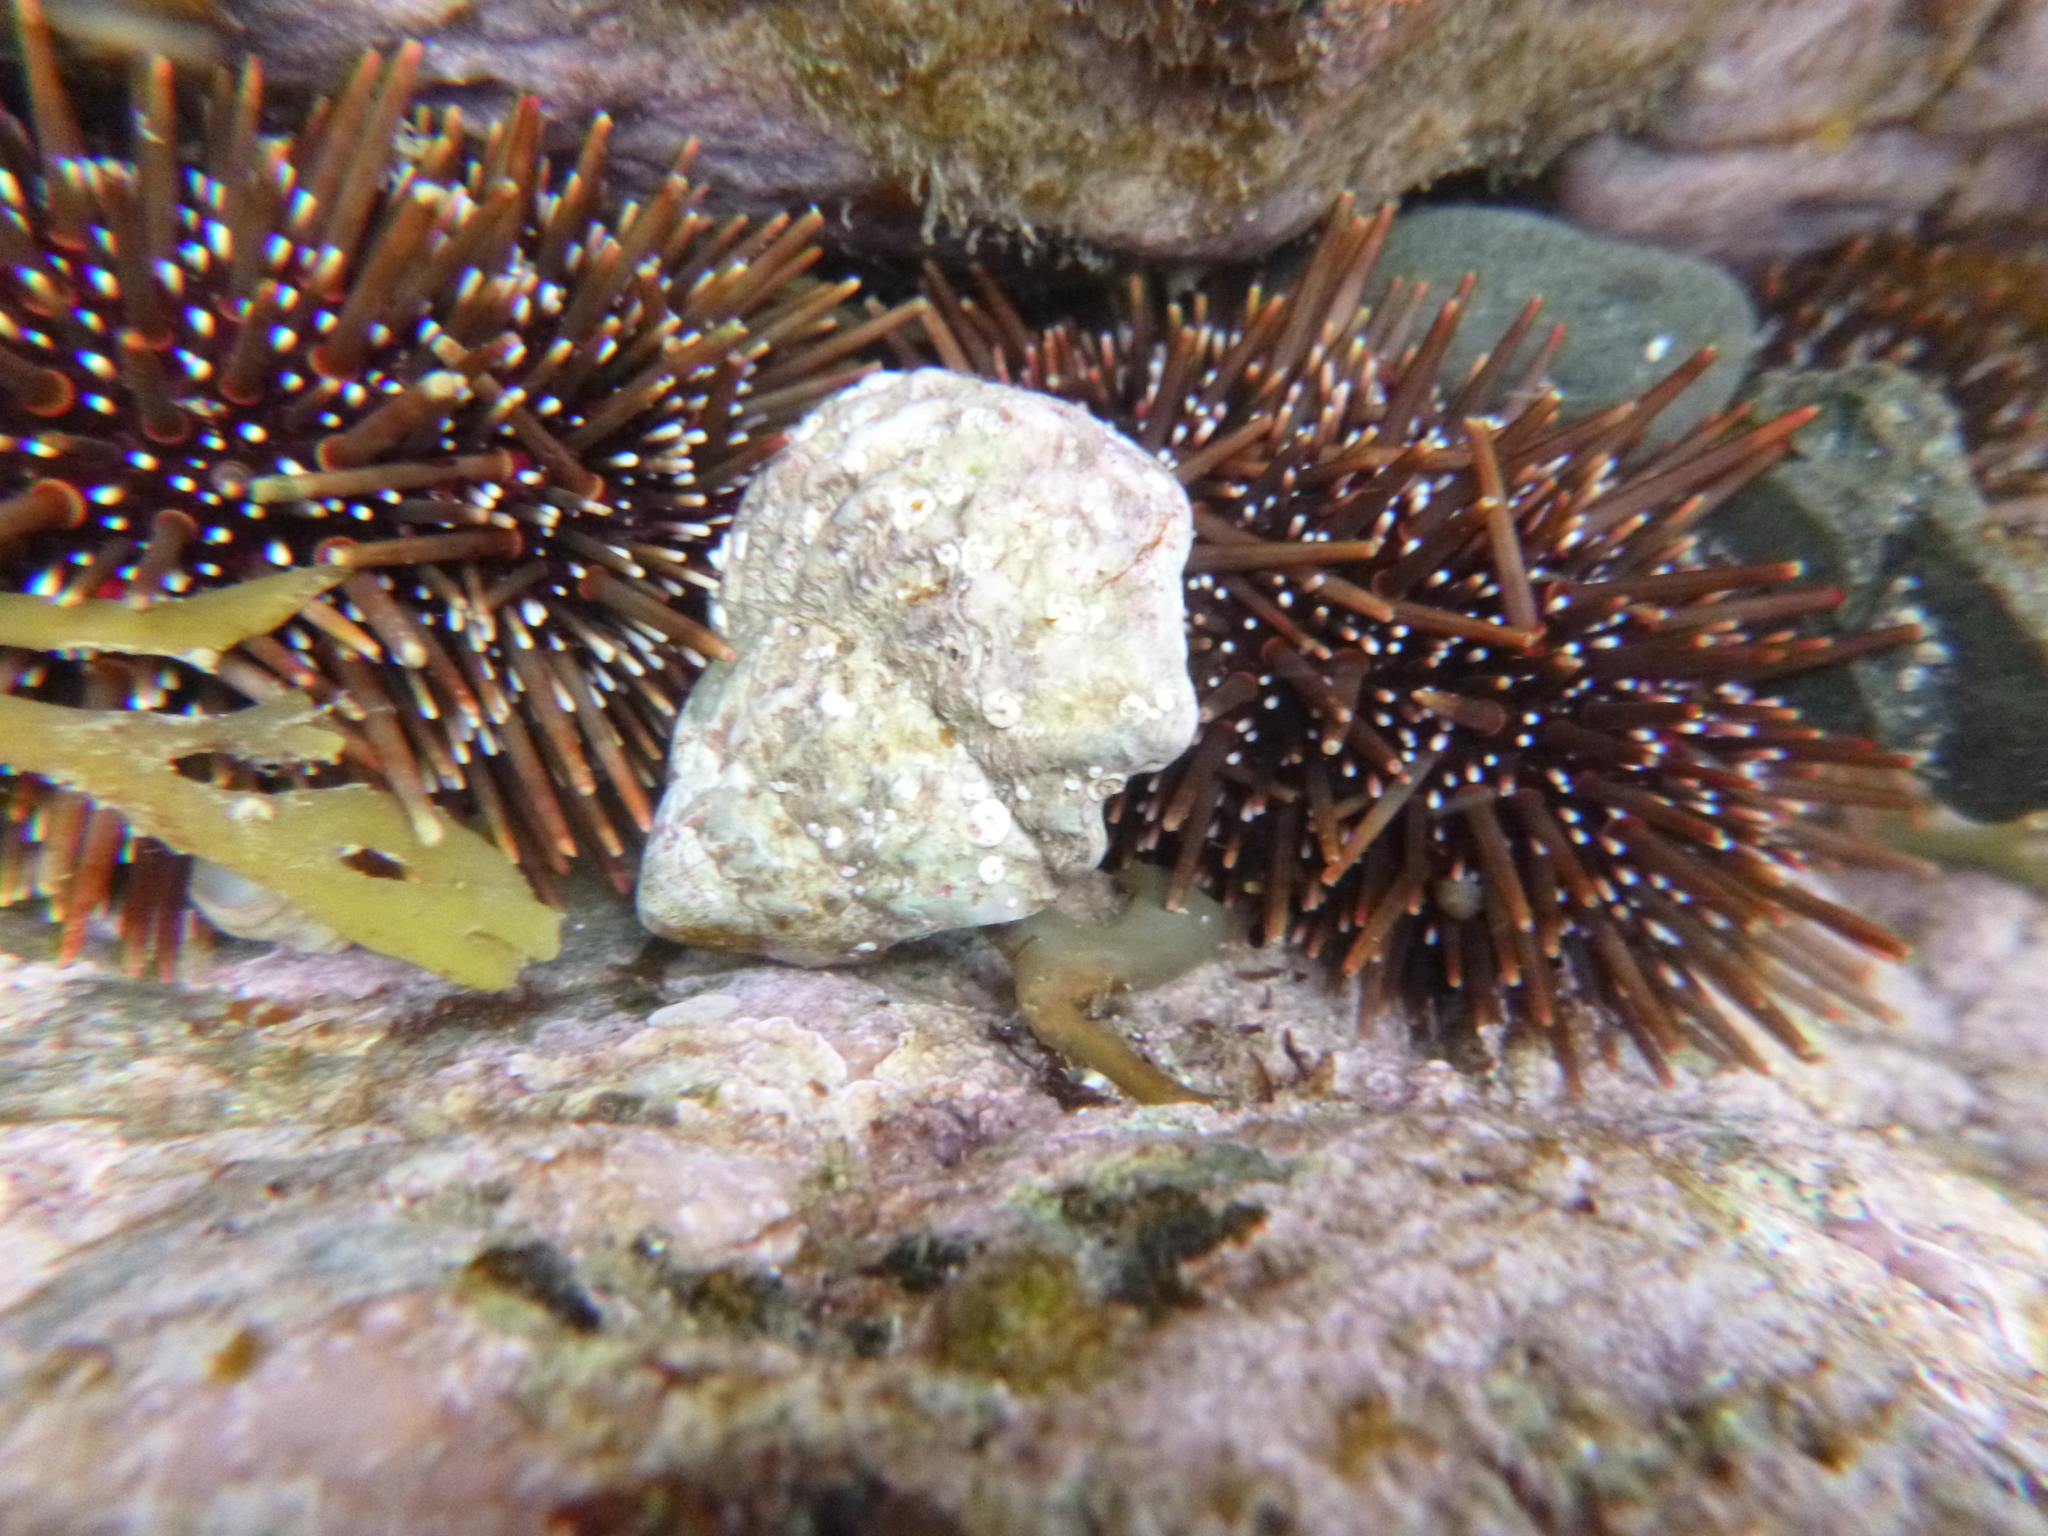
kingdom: Animalia
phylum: Mollusca
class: Gastropoda
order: Trochida
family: Turbinidae
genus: Cookia
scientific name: Cookia sulcata
